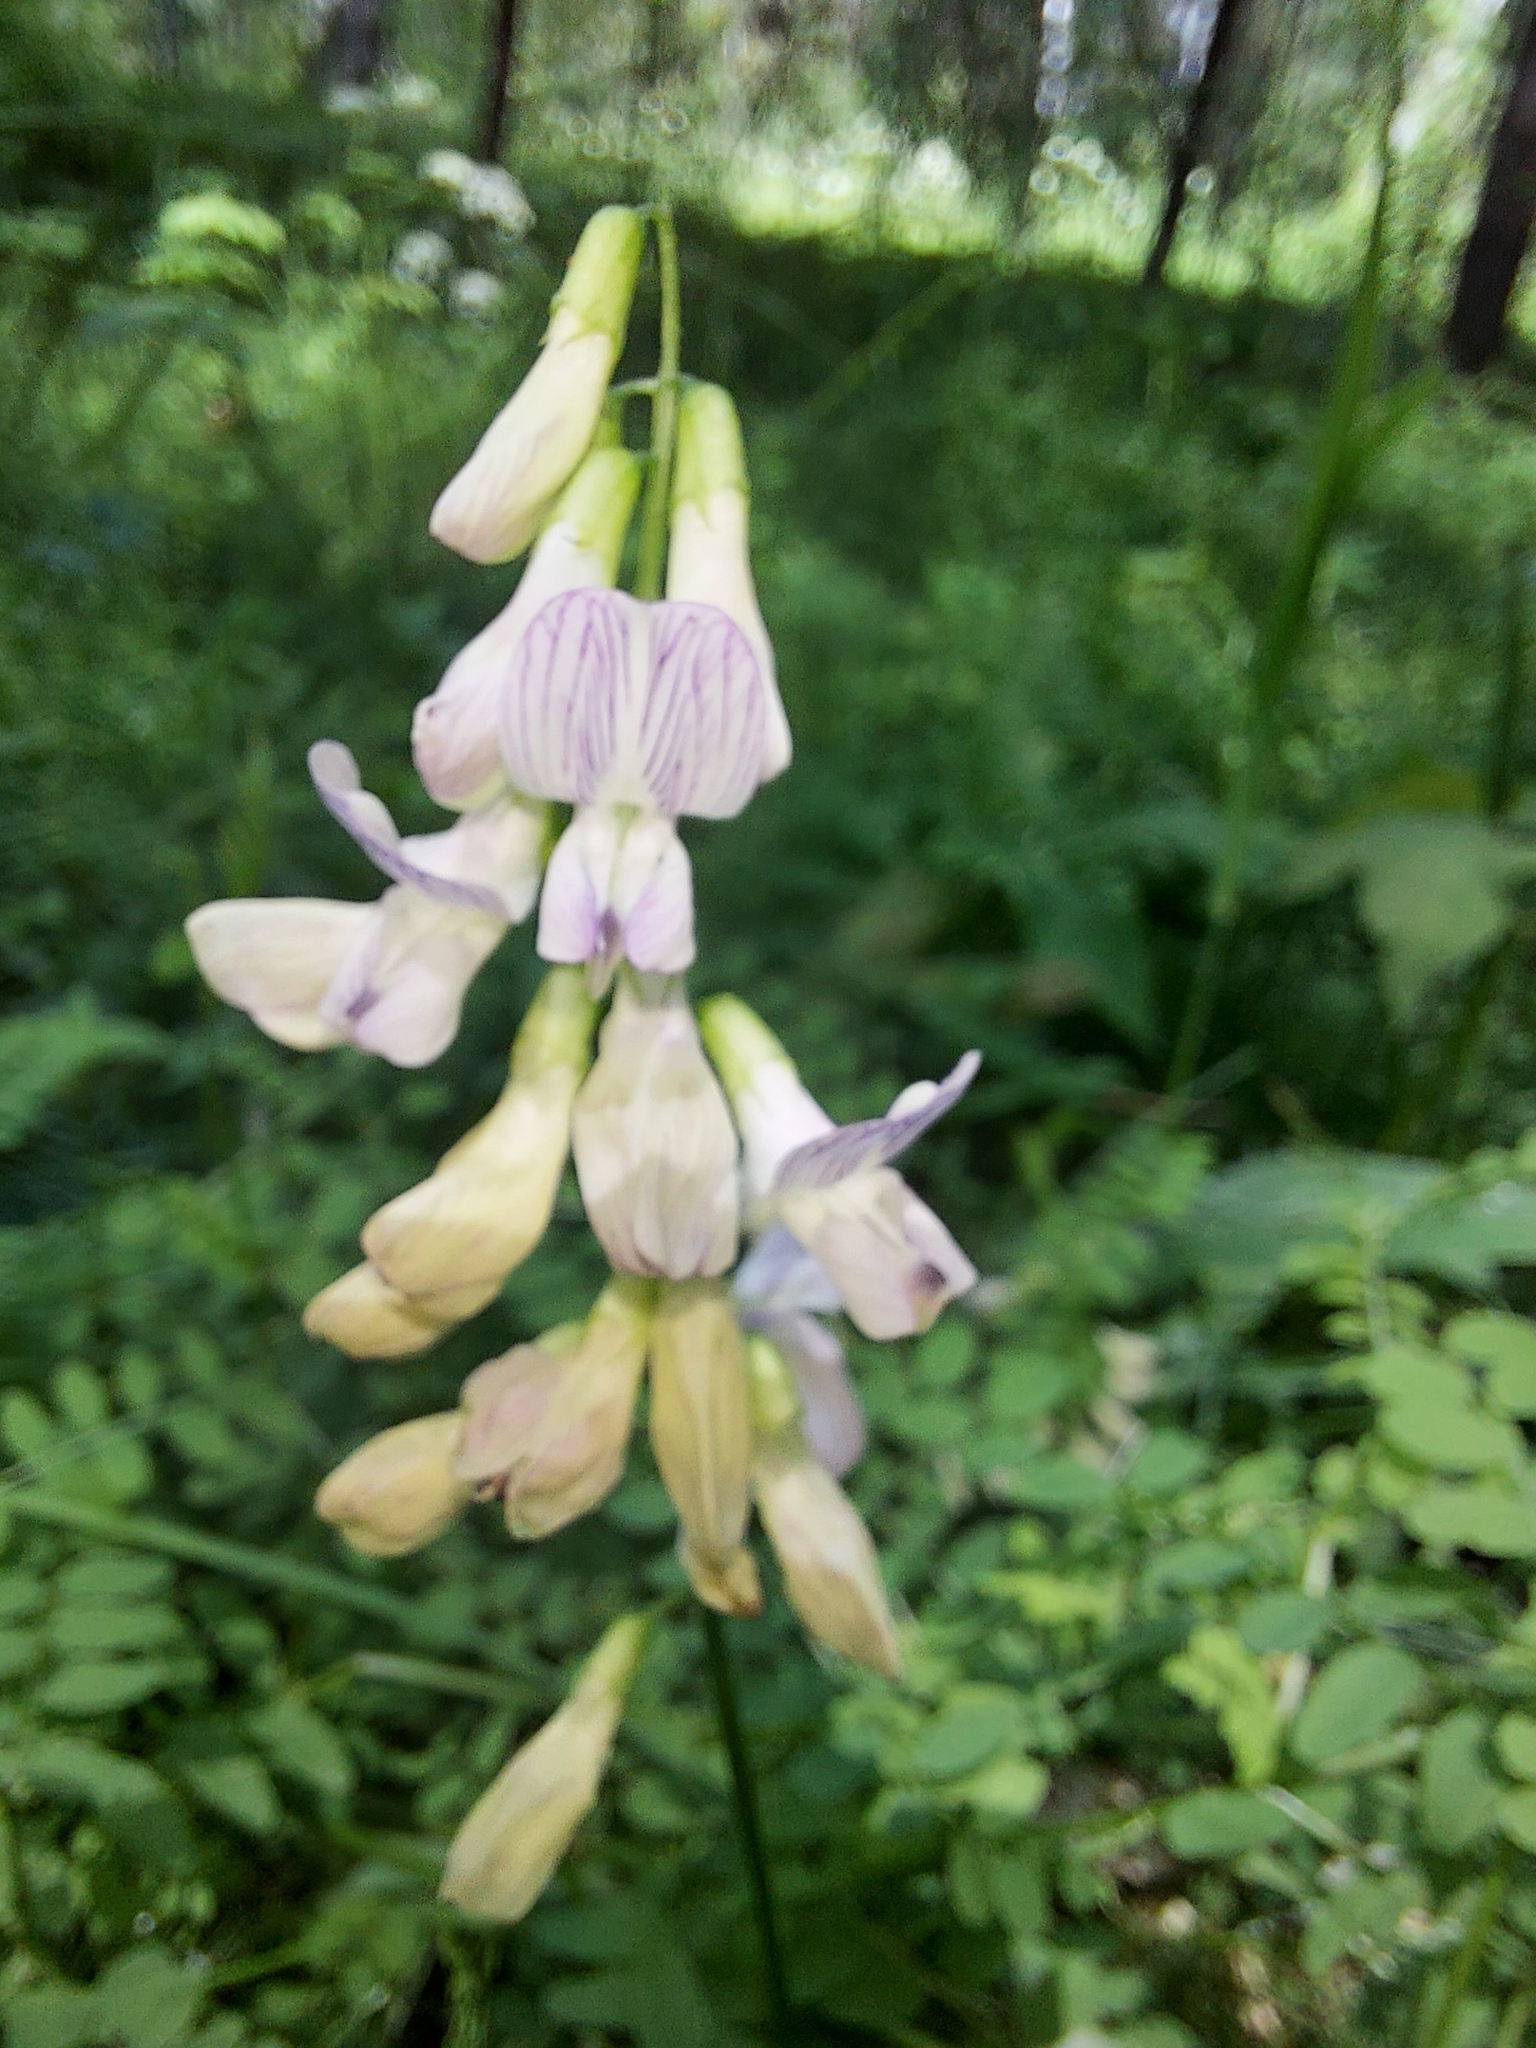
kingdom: Plantae
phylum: Tracheophyta
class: Magnoliopsida
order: Fabales
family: Fabaceae
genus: Vicia
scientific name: Vicia sylvatica
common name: Wood vetch
